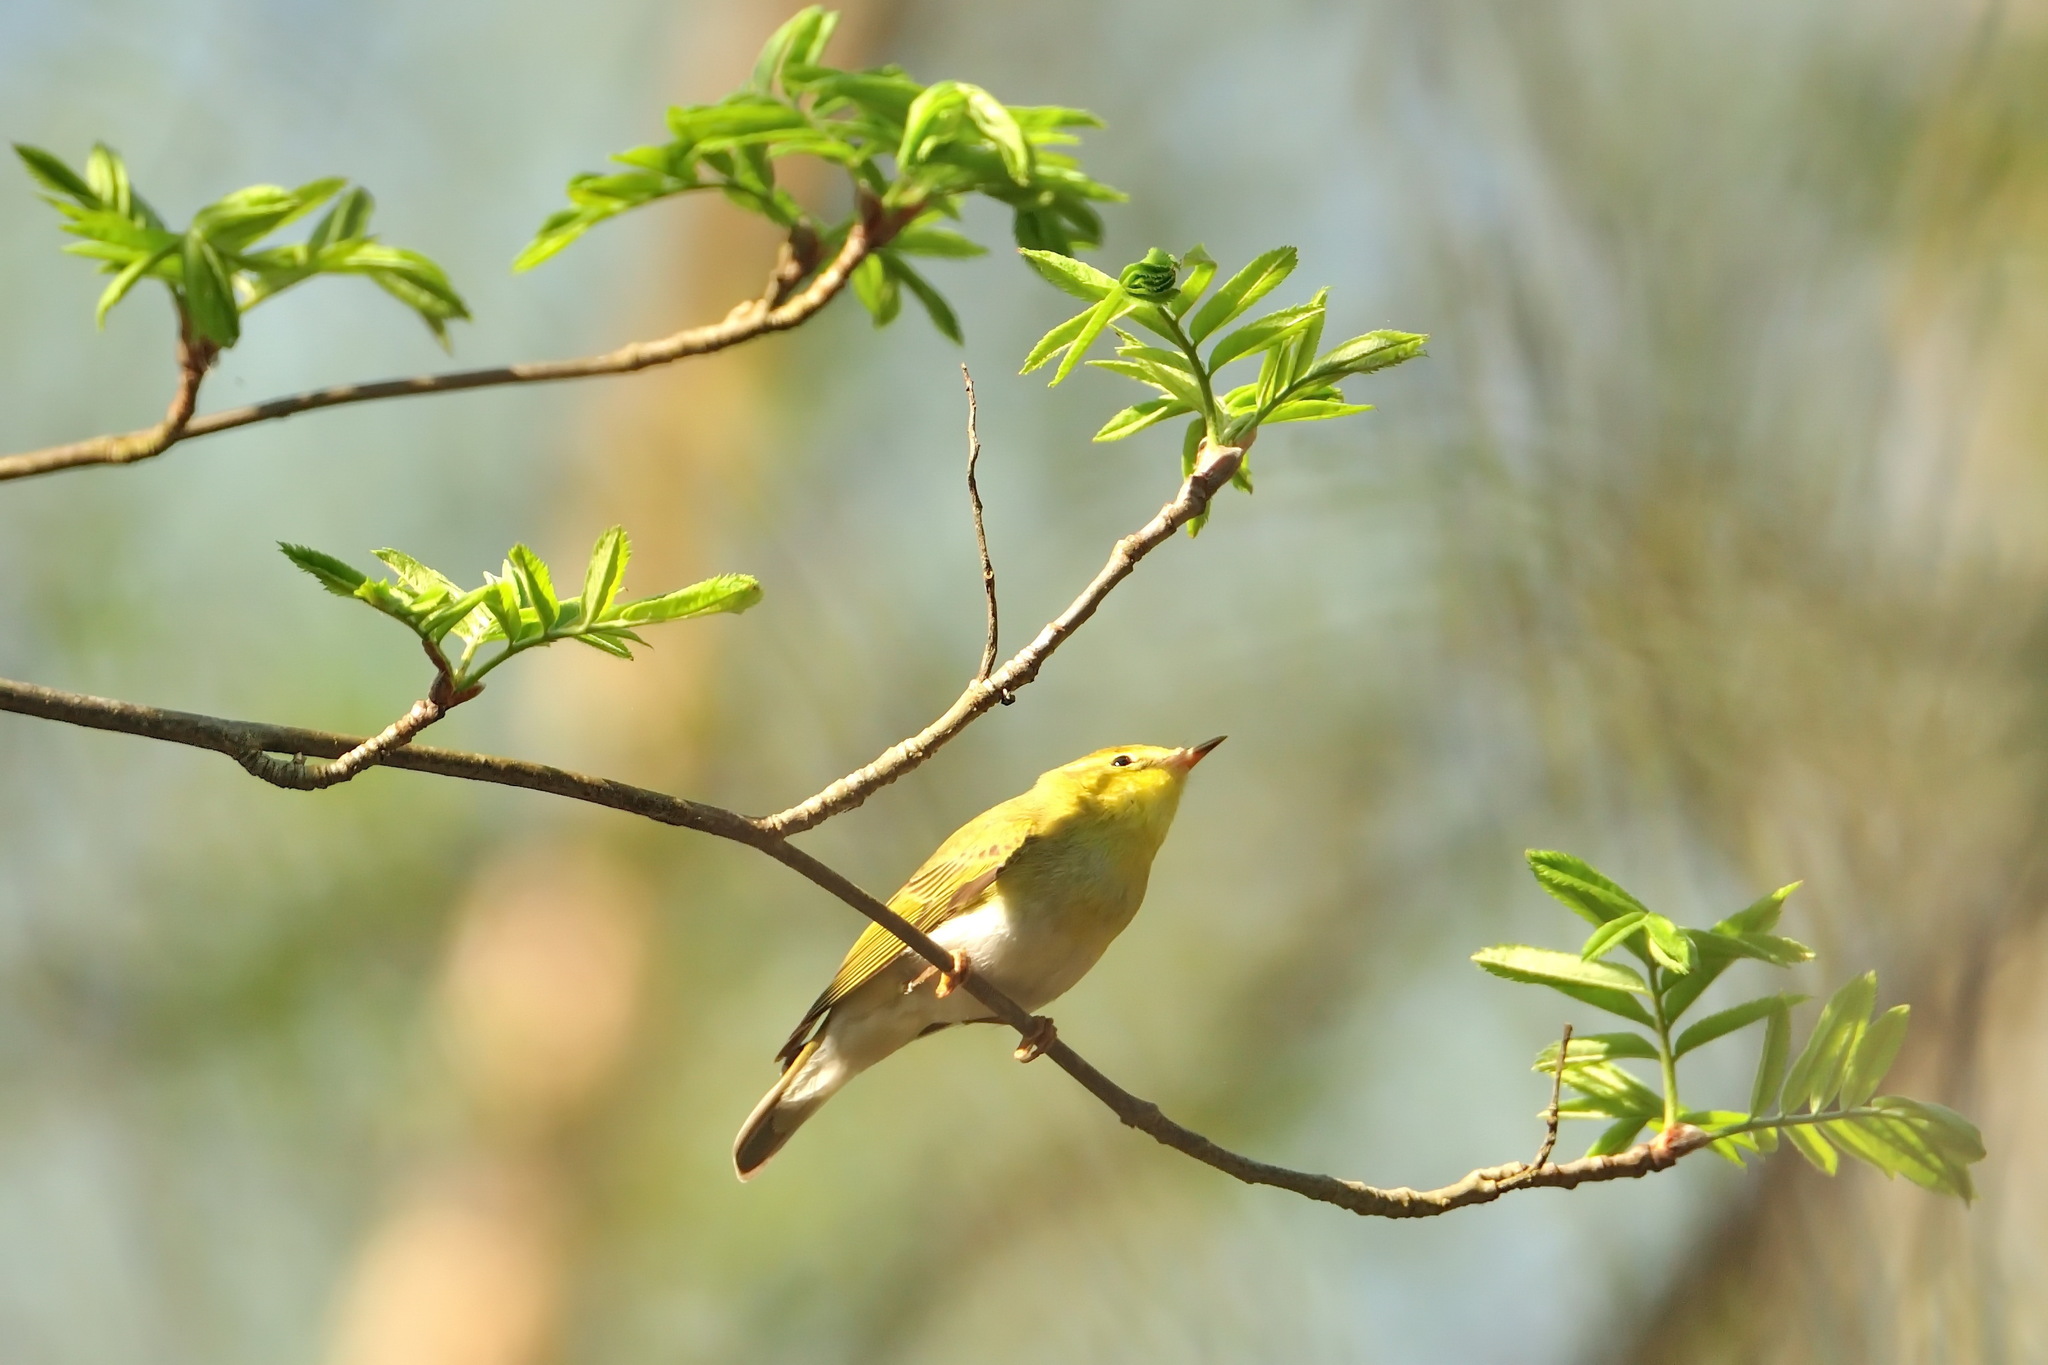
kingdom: Animalia
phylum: Chordata
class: Aves
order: Passeriformes
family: Phylloscopidae
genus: Phylloscopus
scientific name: Phylloscopus sibillatrix
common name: Wood warbler
